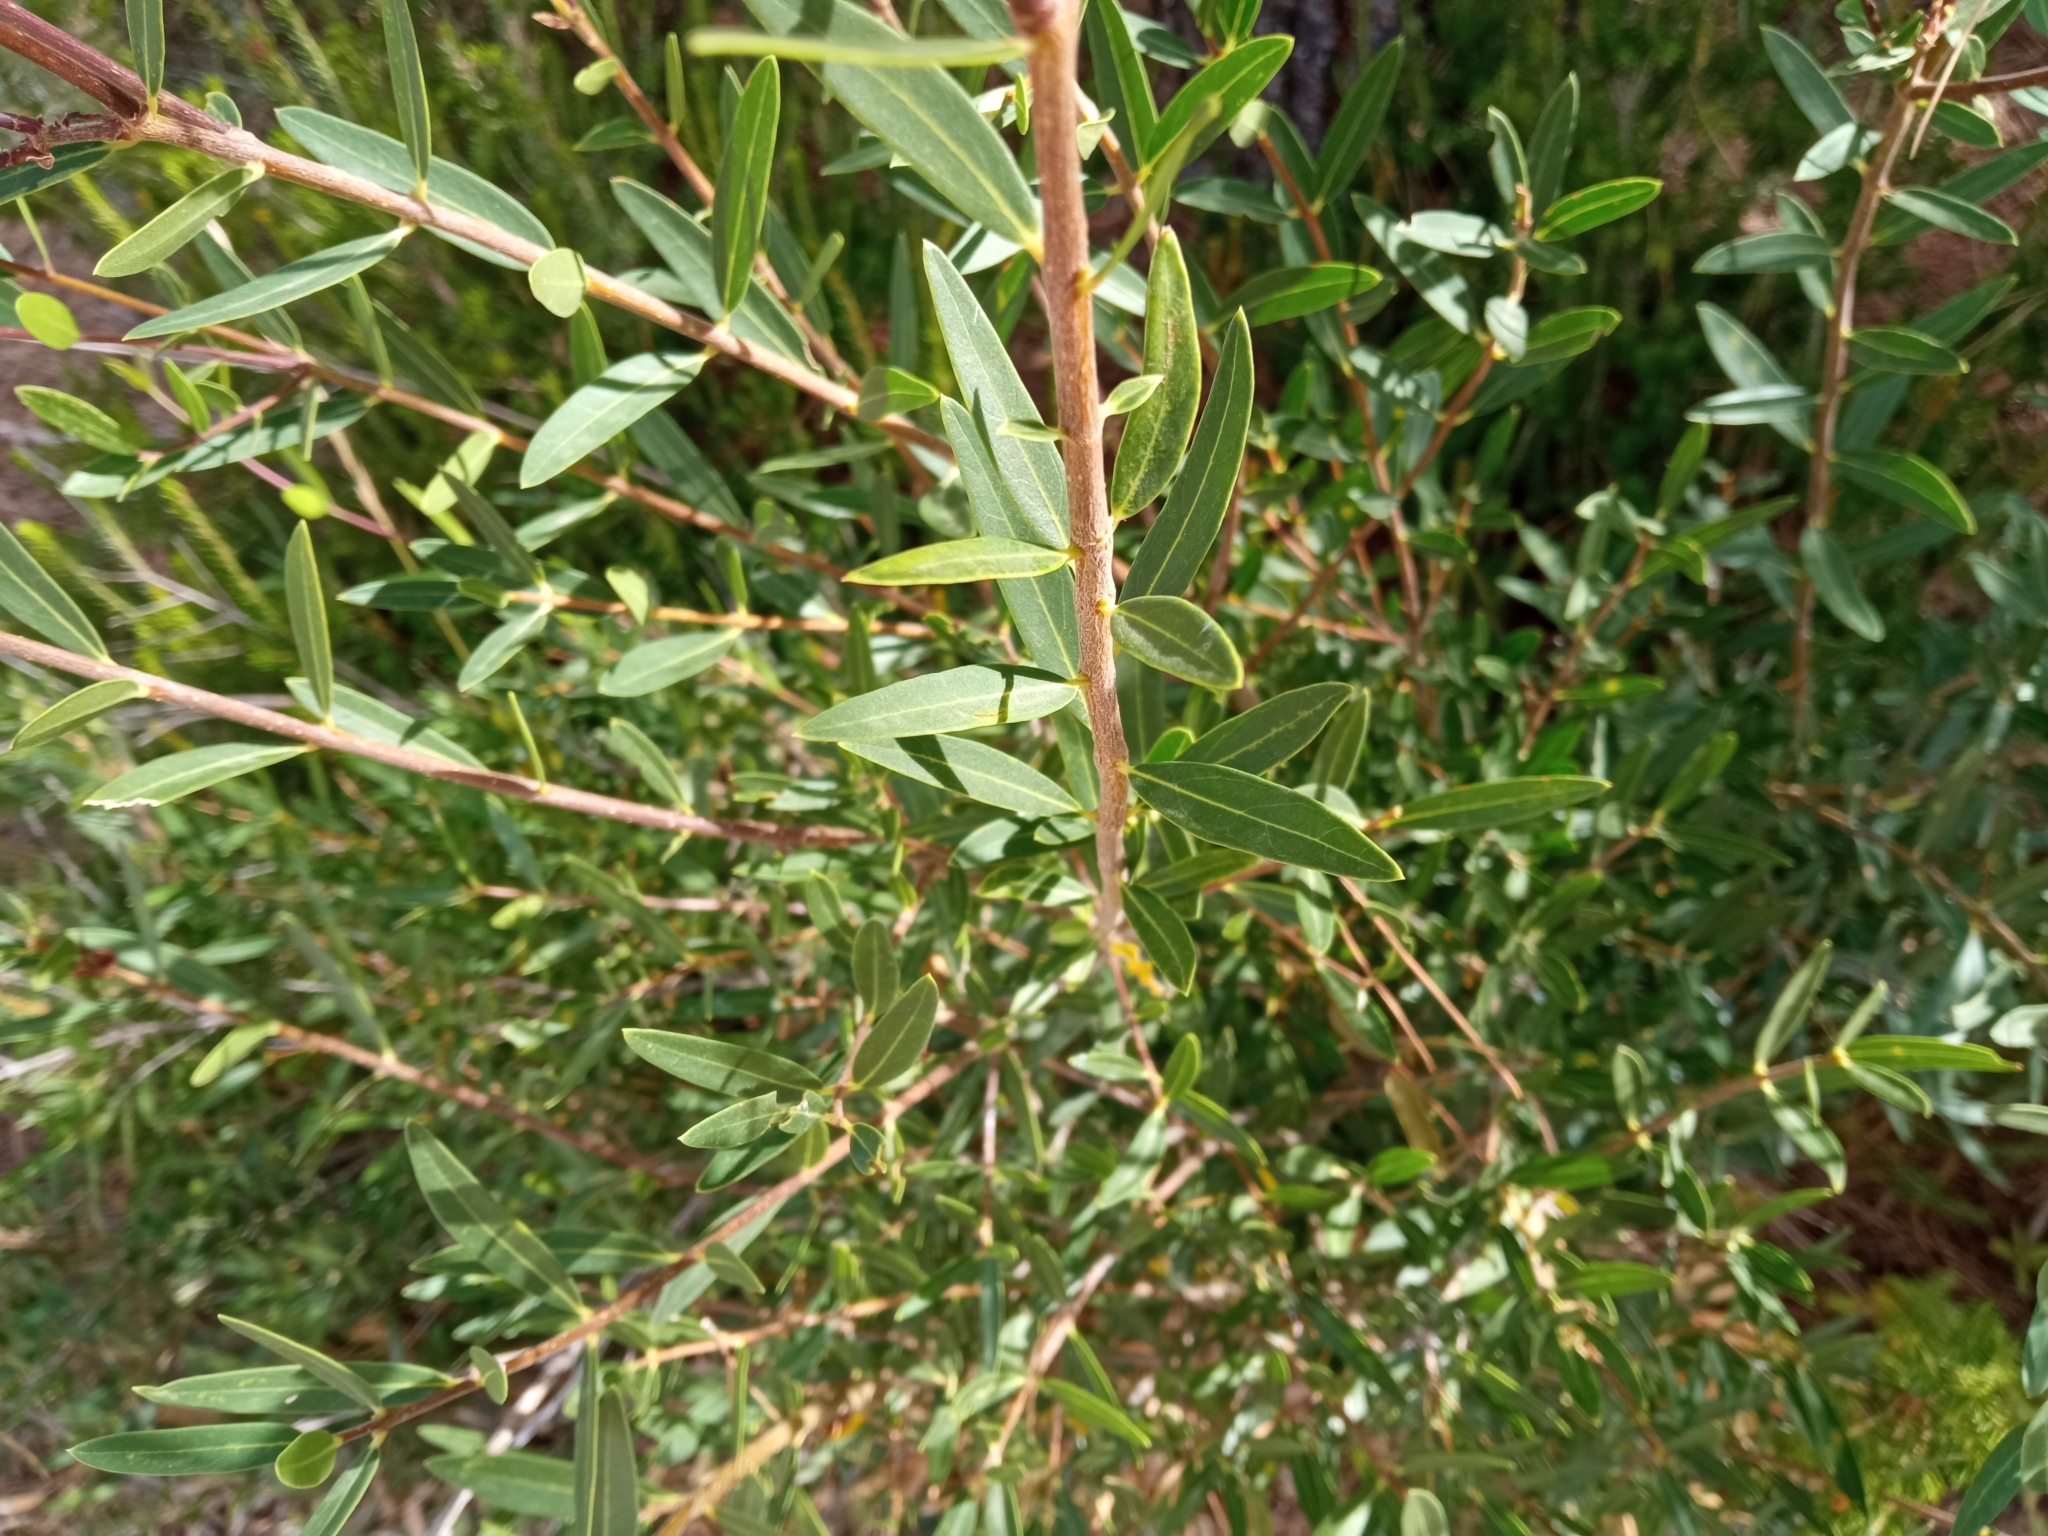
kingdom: Plantae
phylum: Tracheophyta
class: Magnoliopsida
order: Lamiales
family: Oleaceae
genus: Phillyrea
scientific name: Phillyrea angustifolia
